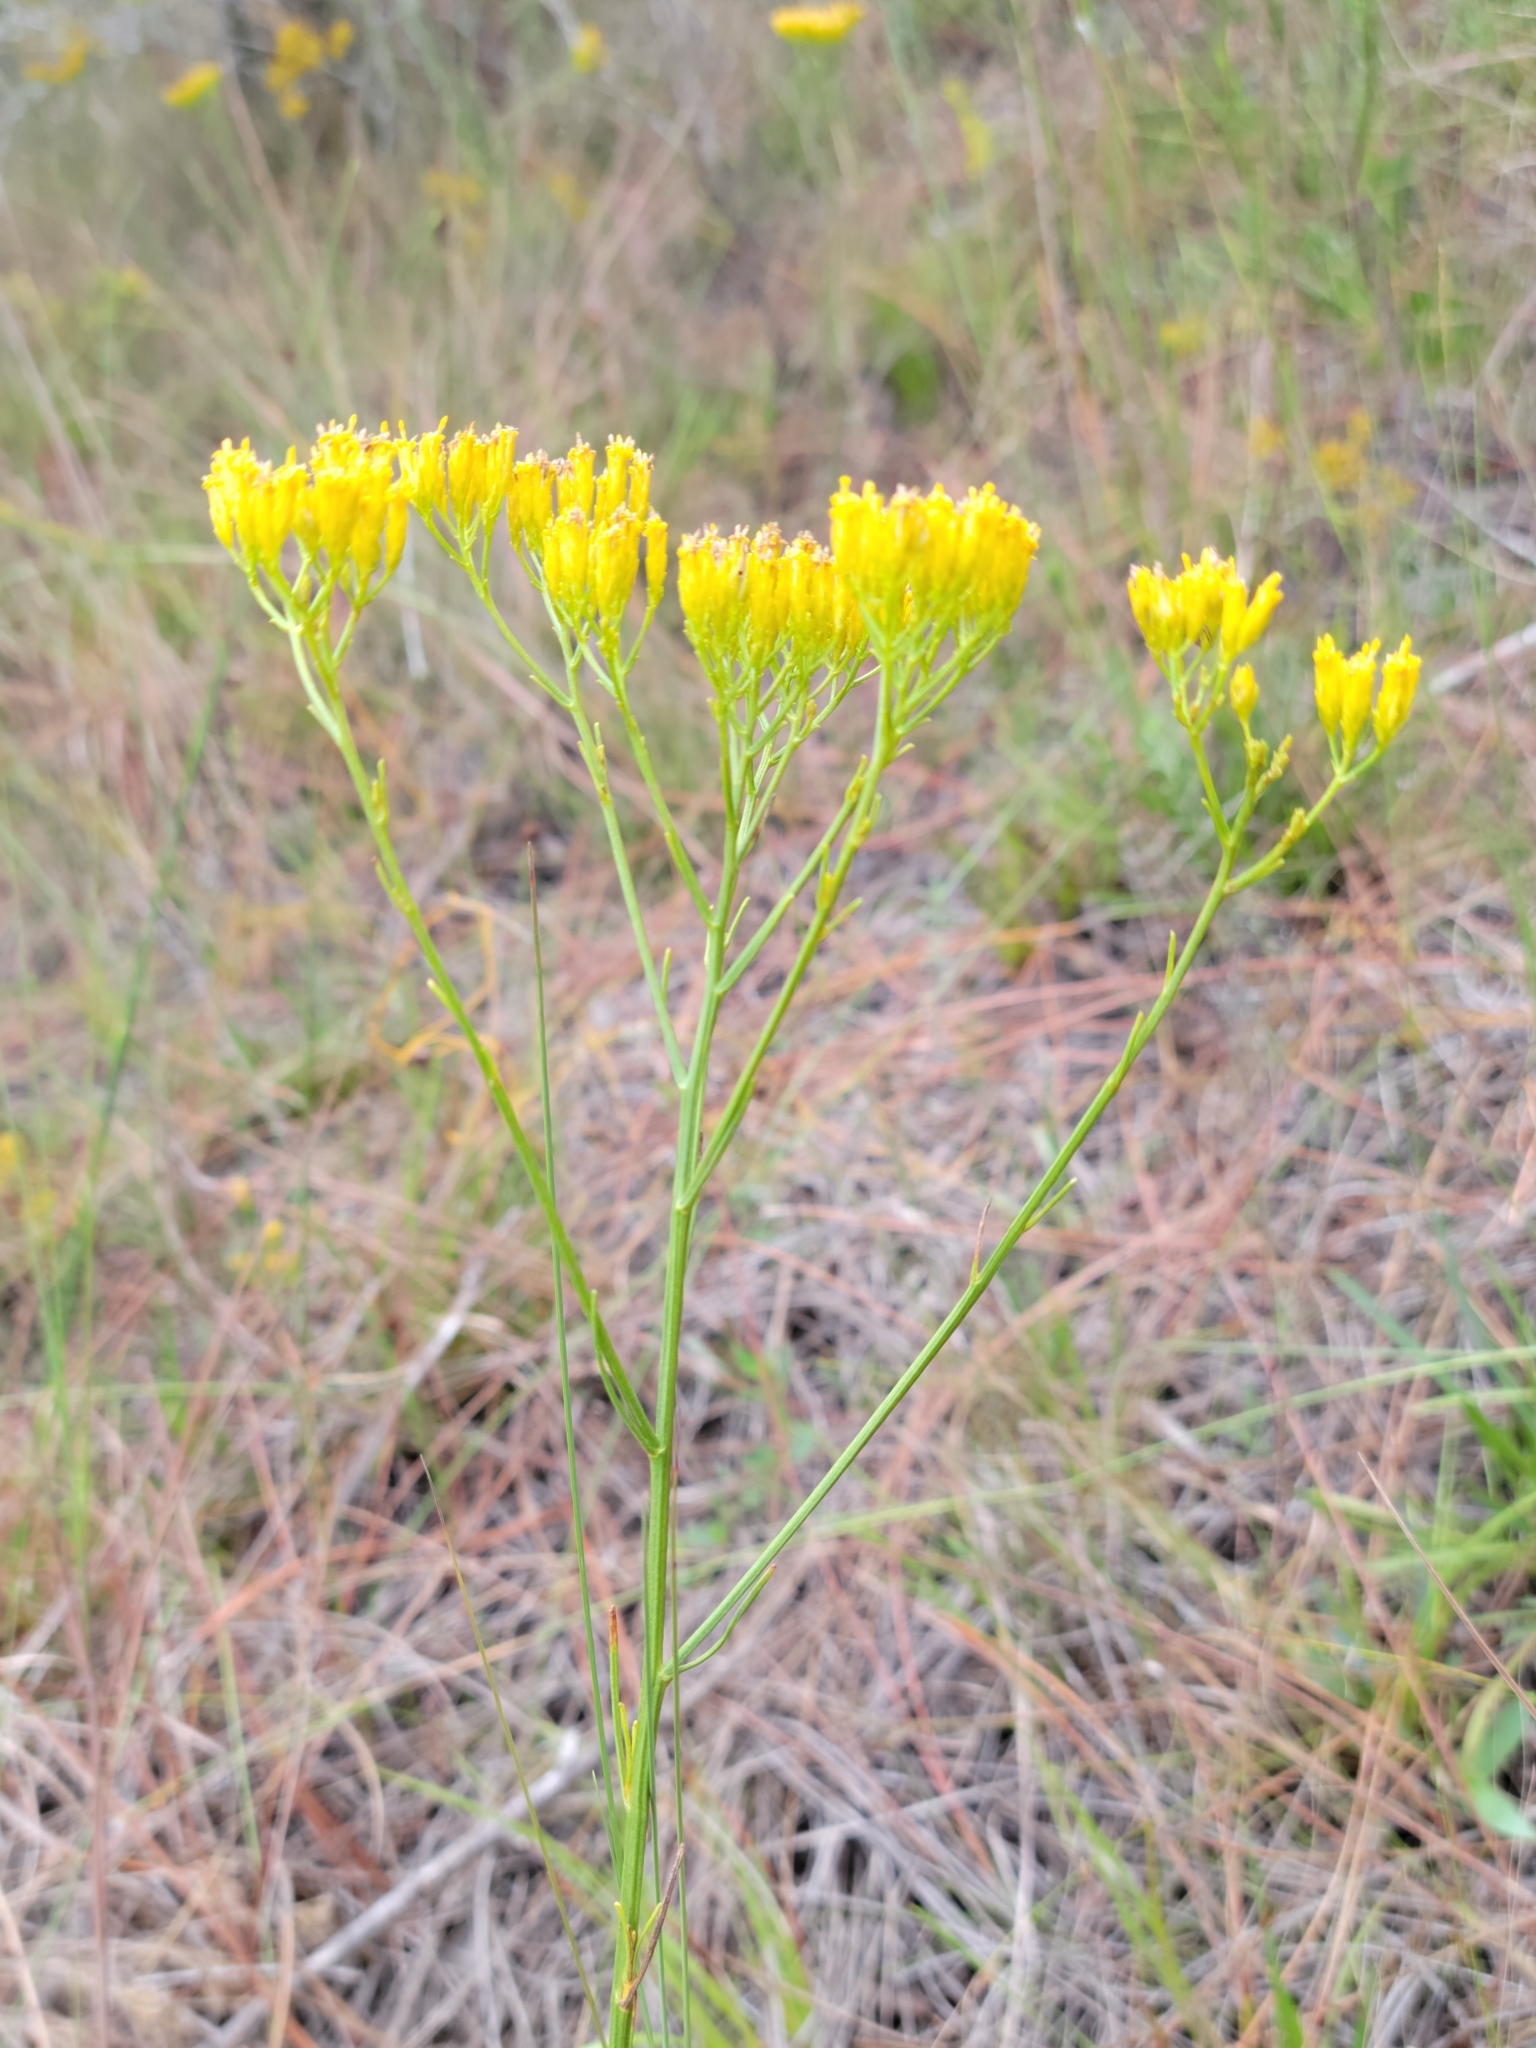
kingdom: Plantae
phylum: Tracheophyta
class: Magnoliopsida
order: Asterales
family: Asteraceae
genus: Bigelowia
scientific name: Bigelowia australis
